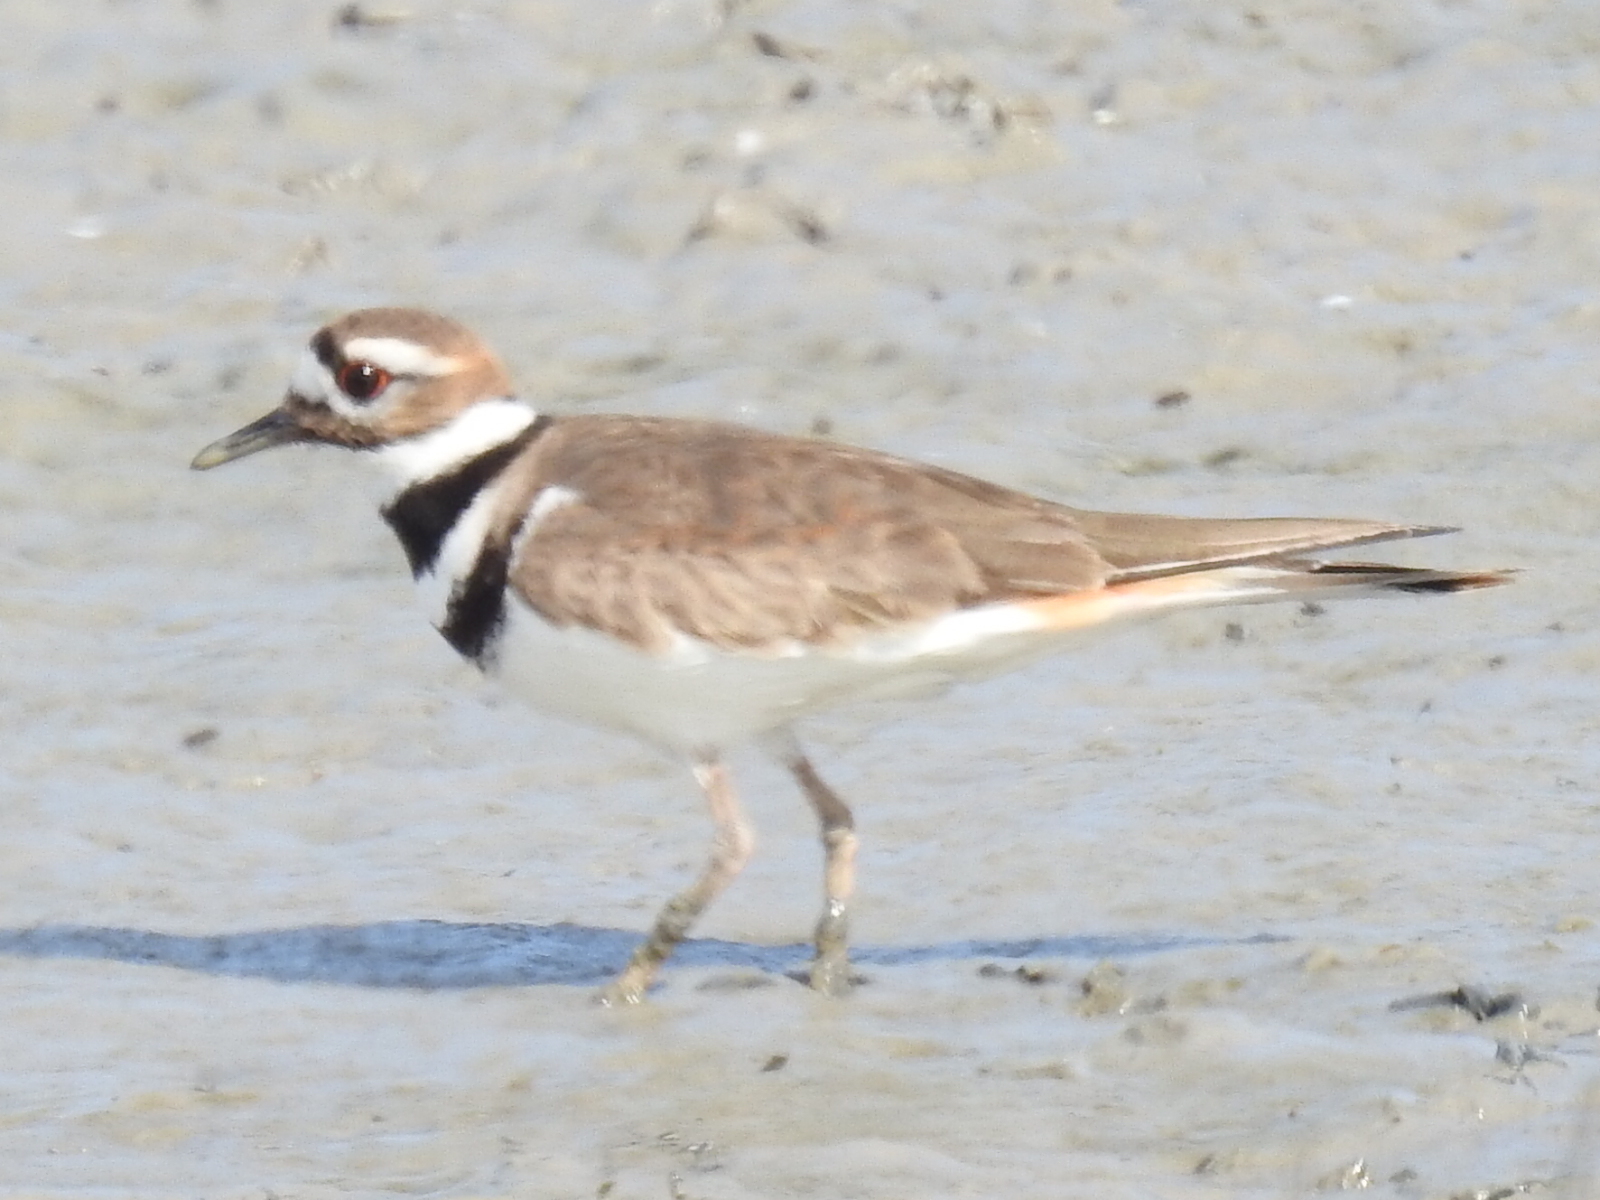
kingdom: Animalia
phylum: Chordata
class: Aves
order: Charadriiformes
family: Charadriidae
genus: Charadrius
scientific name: Charadrius vociferus
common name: Killdeer
